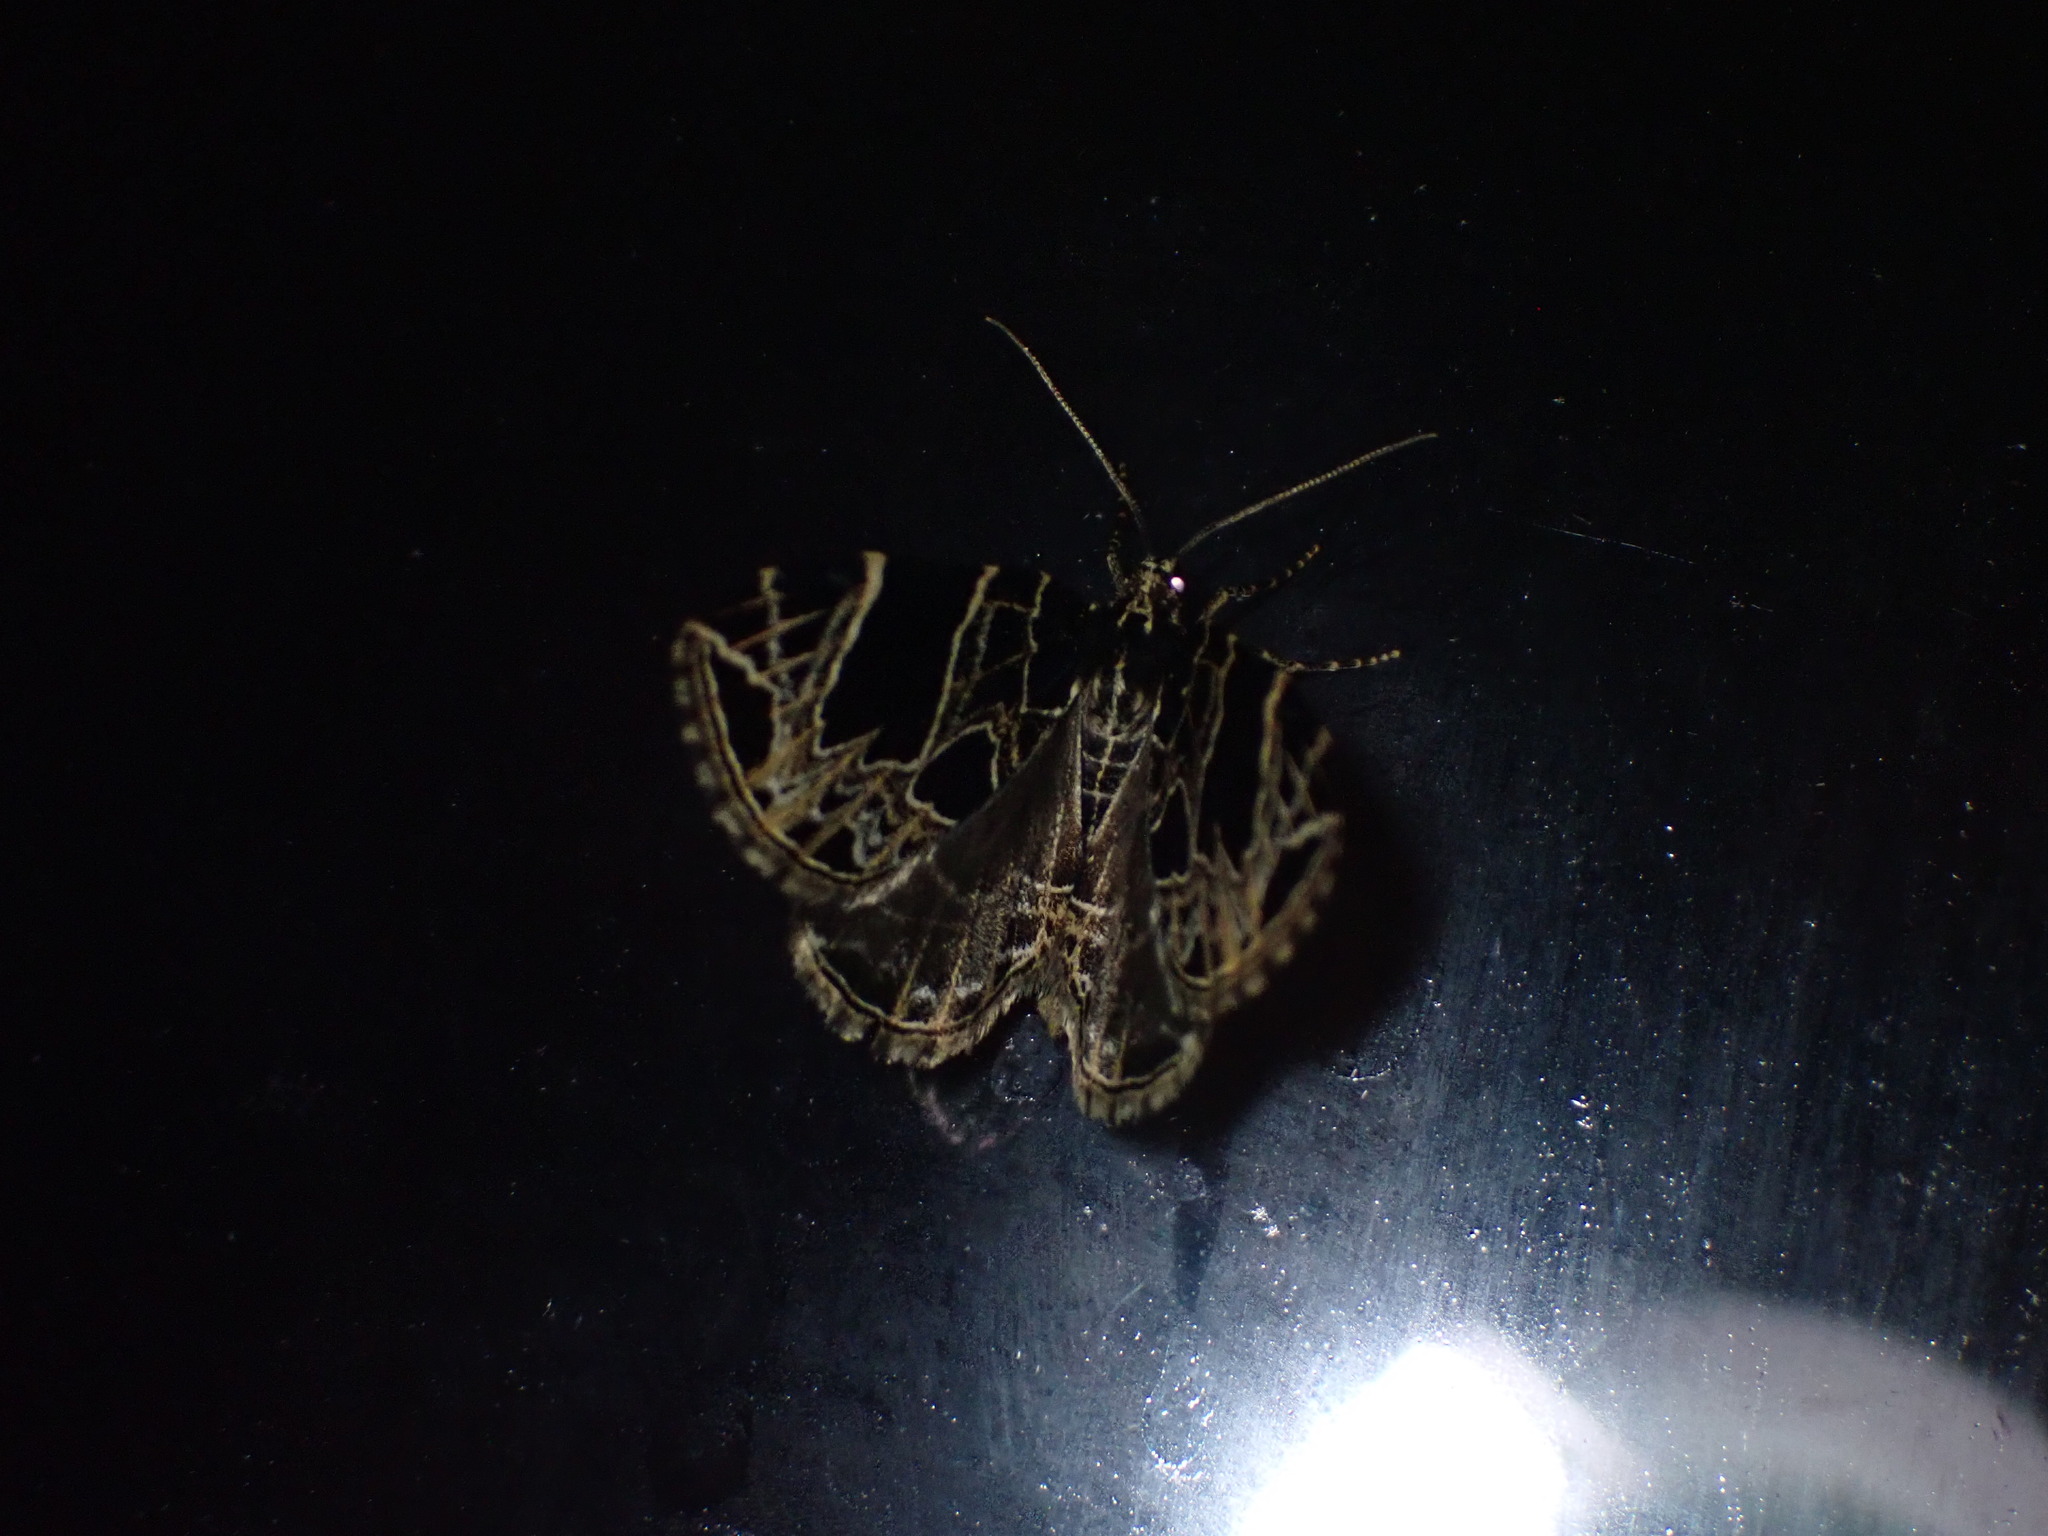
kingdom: Animalia
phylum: Arthropoda
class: Insecta
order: Lepidoptera
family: Geometridae
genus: Ecliptopera
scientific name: Ecliptopera atricolorata
